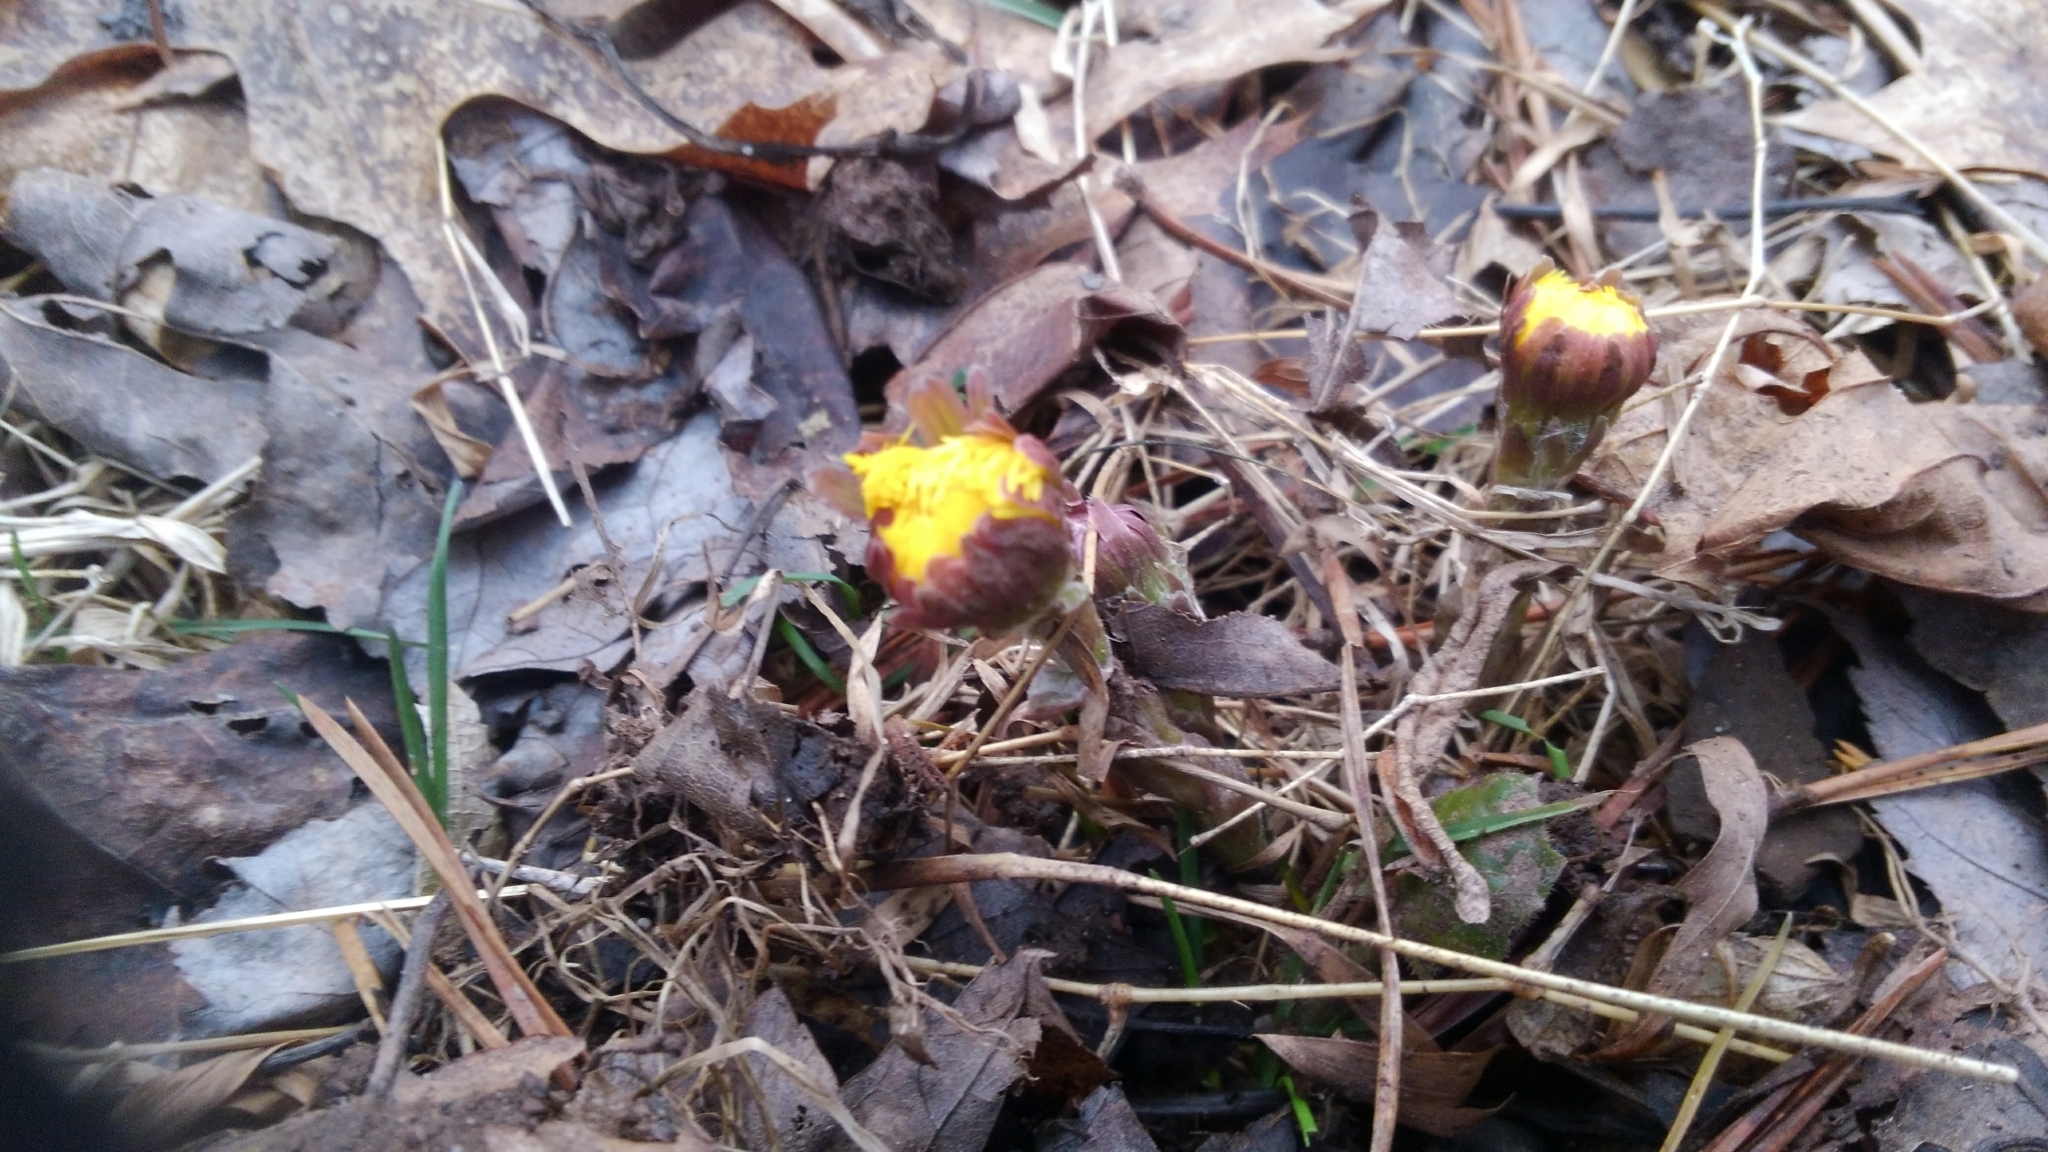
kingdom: Plantae
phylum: Tracheophyta
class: Magnoliopsida
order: Asterales
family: Asteraceae
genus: Tussilago
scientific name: Tussilago farfara
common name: Coltsfoot
